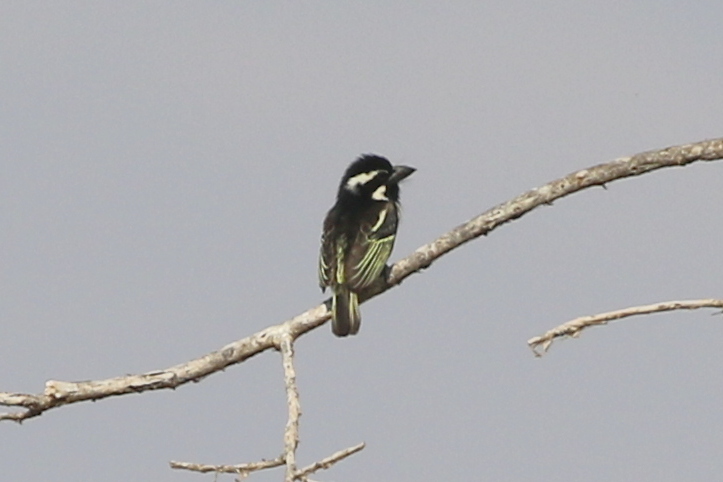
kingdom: Animalia
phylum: Chordata
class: Aves
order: Piciformes
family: Lybiidae
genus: Tricholaema
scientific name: Tricholaema lacrymosa
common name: Spot-flanked barbet
